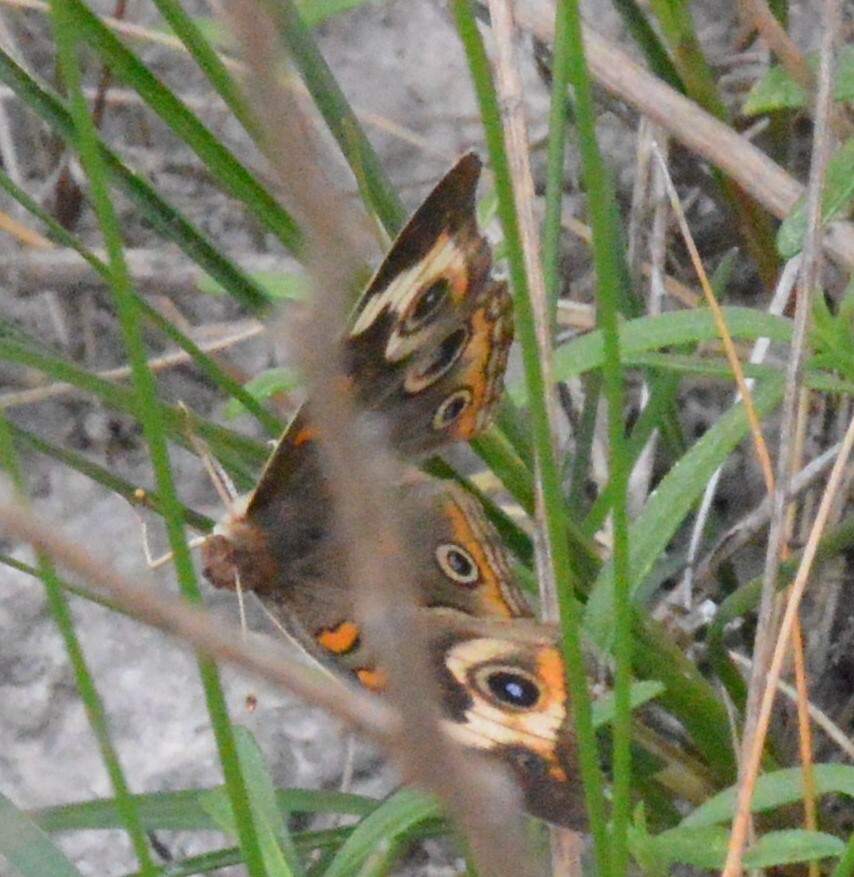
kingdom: Animalia
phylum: Arthropoda
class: Insecta
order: Lepidoptera
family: Nymphalidae
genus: Junonia
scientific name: Junonia coenia
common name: Common buckeye
